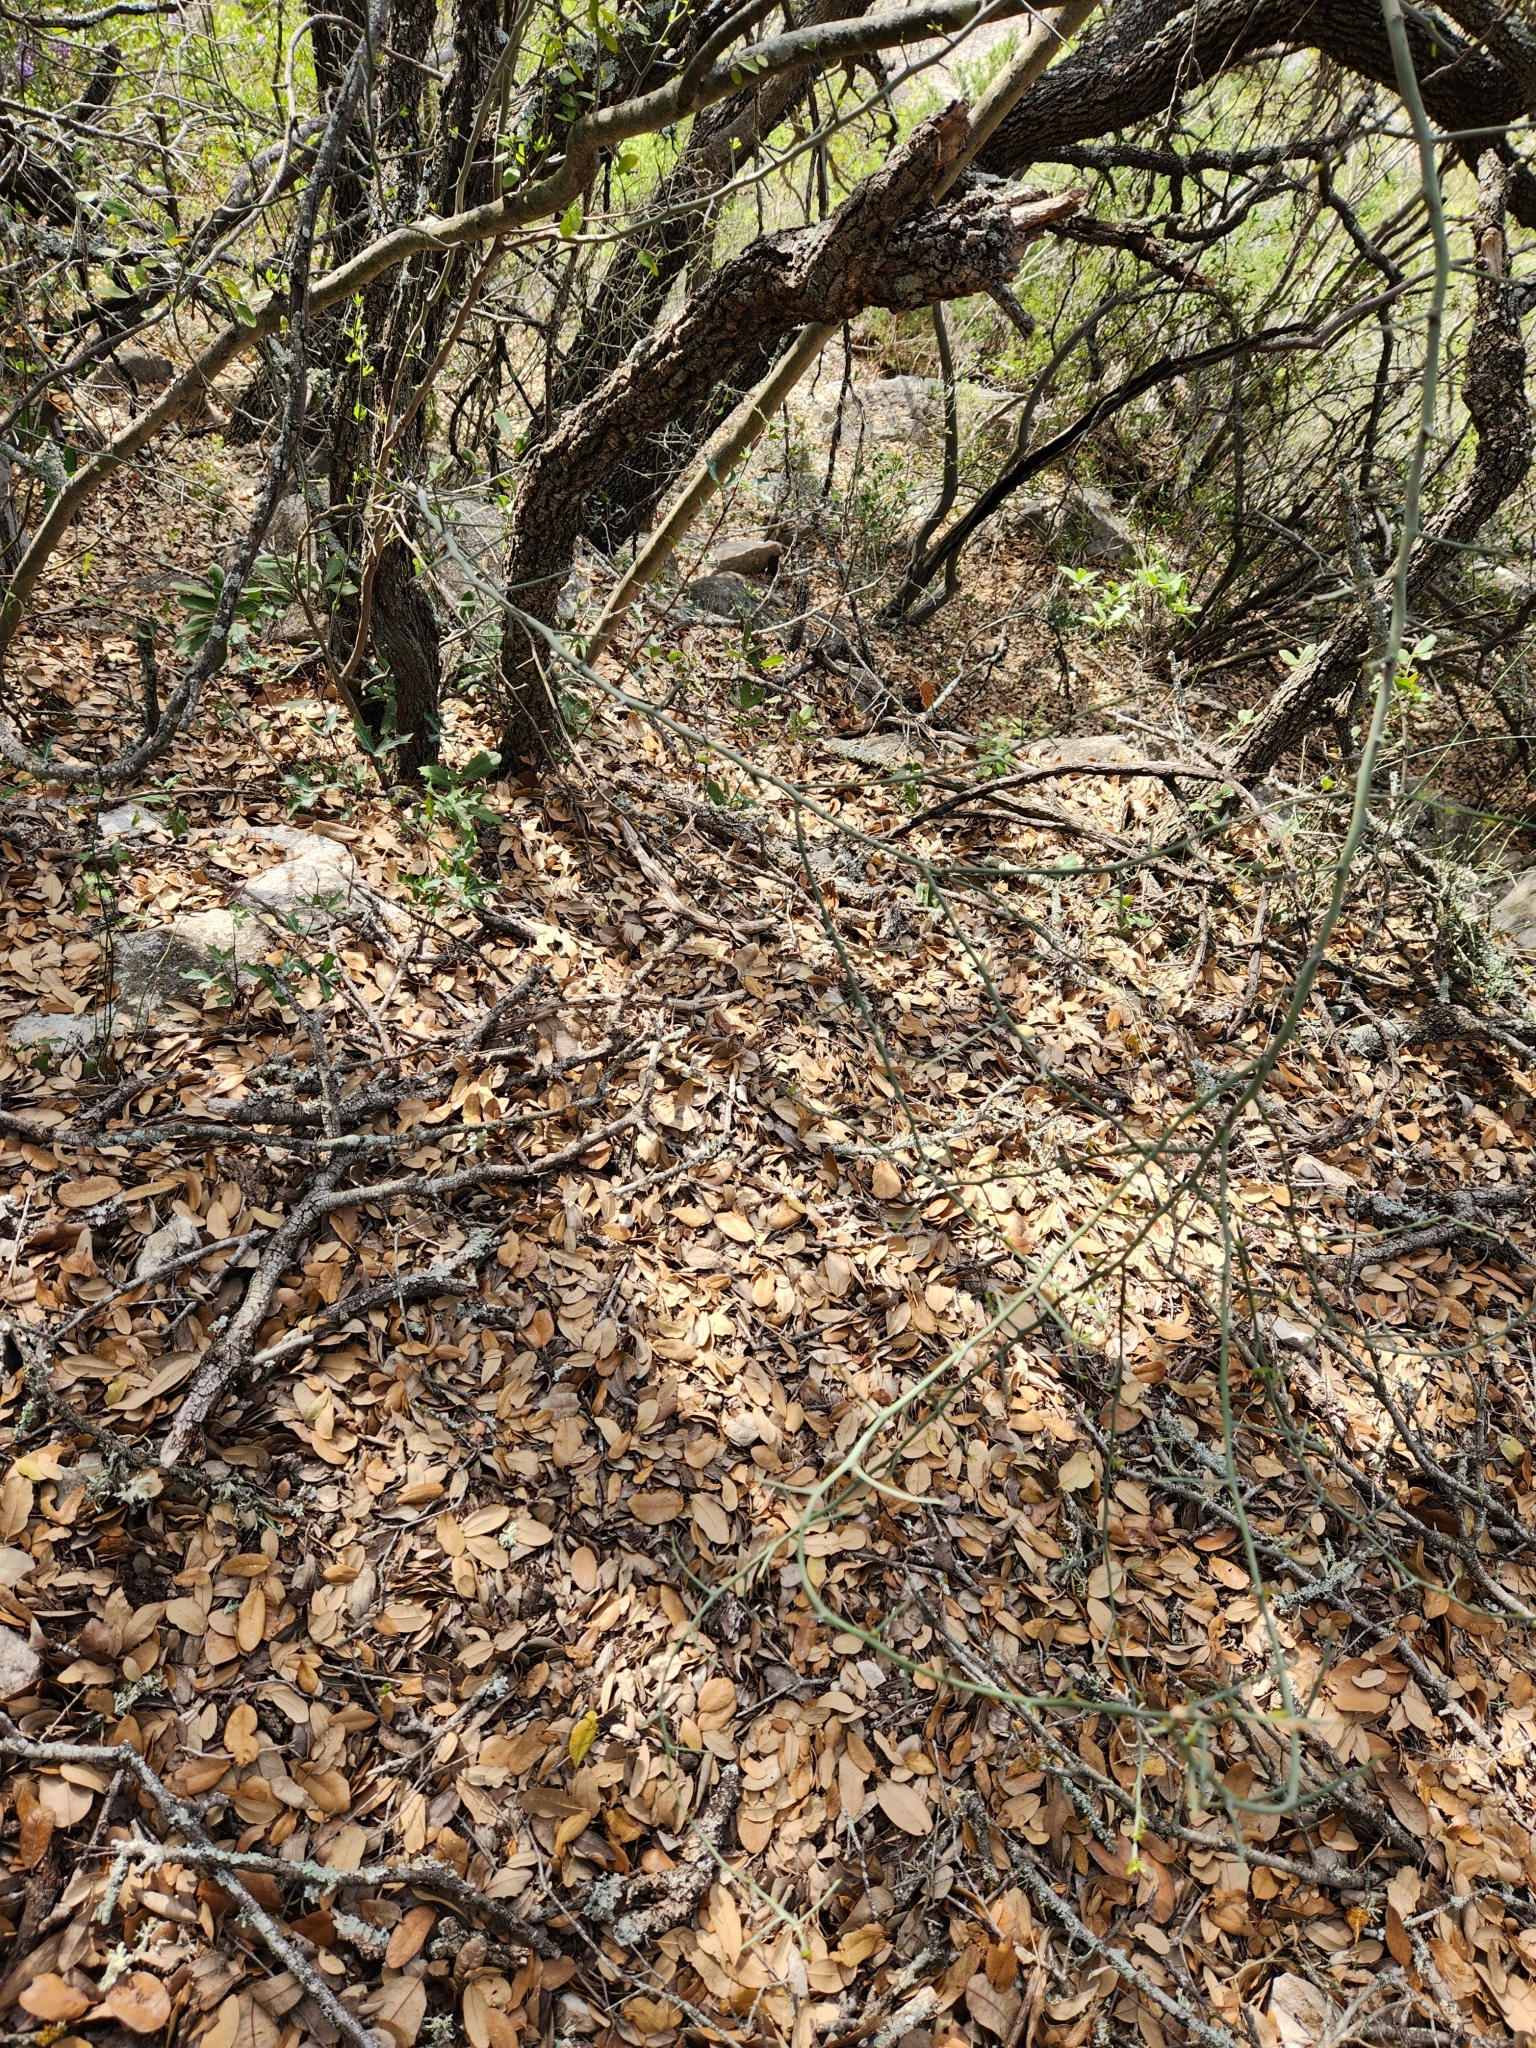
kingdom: Plantae
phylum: Tracheophyta
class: Magnoliopsida
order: Rosales
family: Rhamnaceae
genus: Sarcomphalus
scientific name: Sarcomphalus obtusifolius
